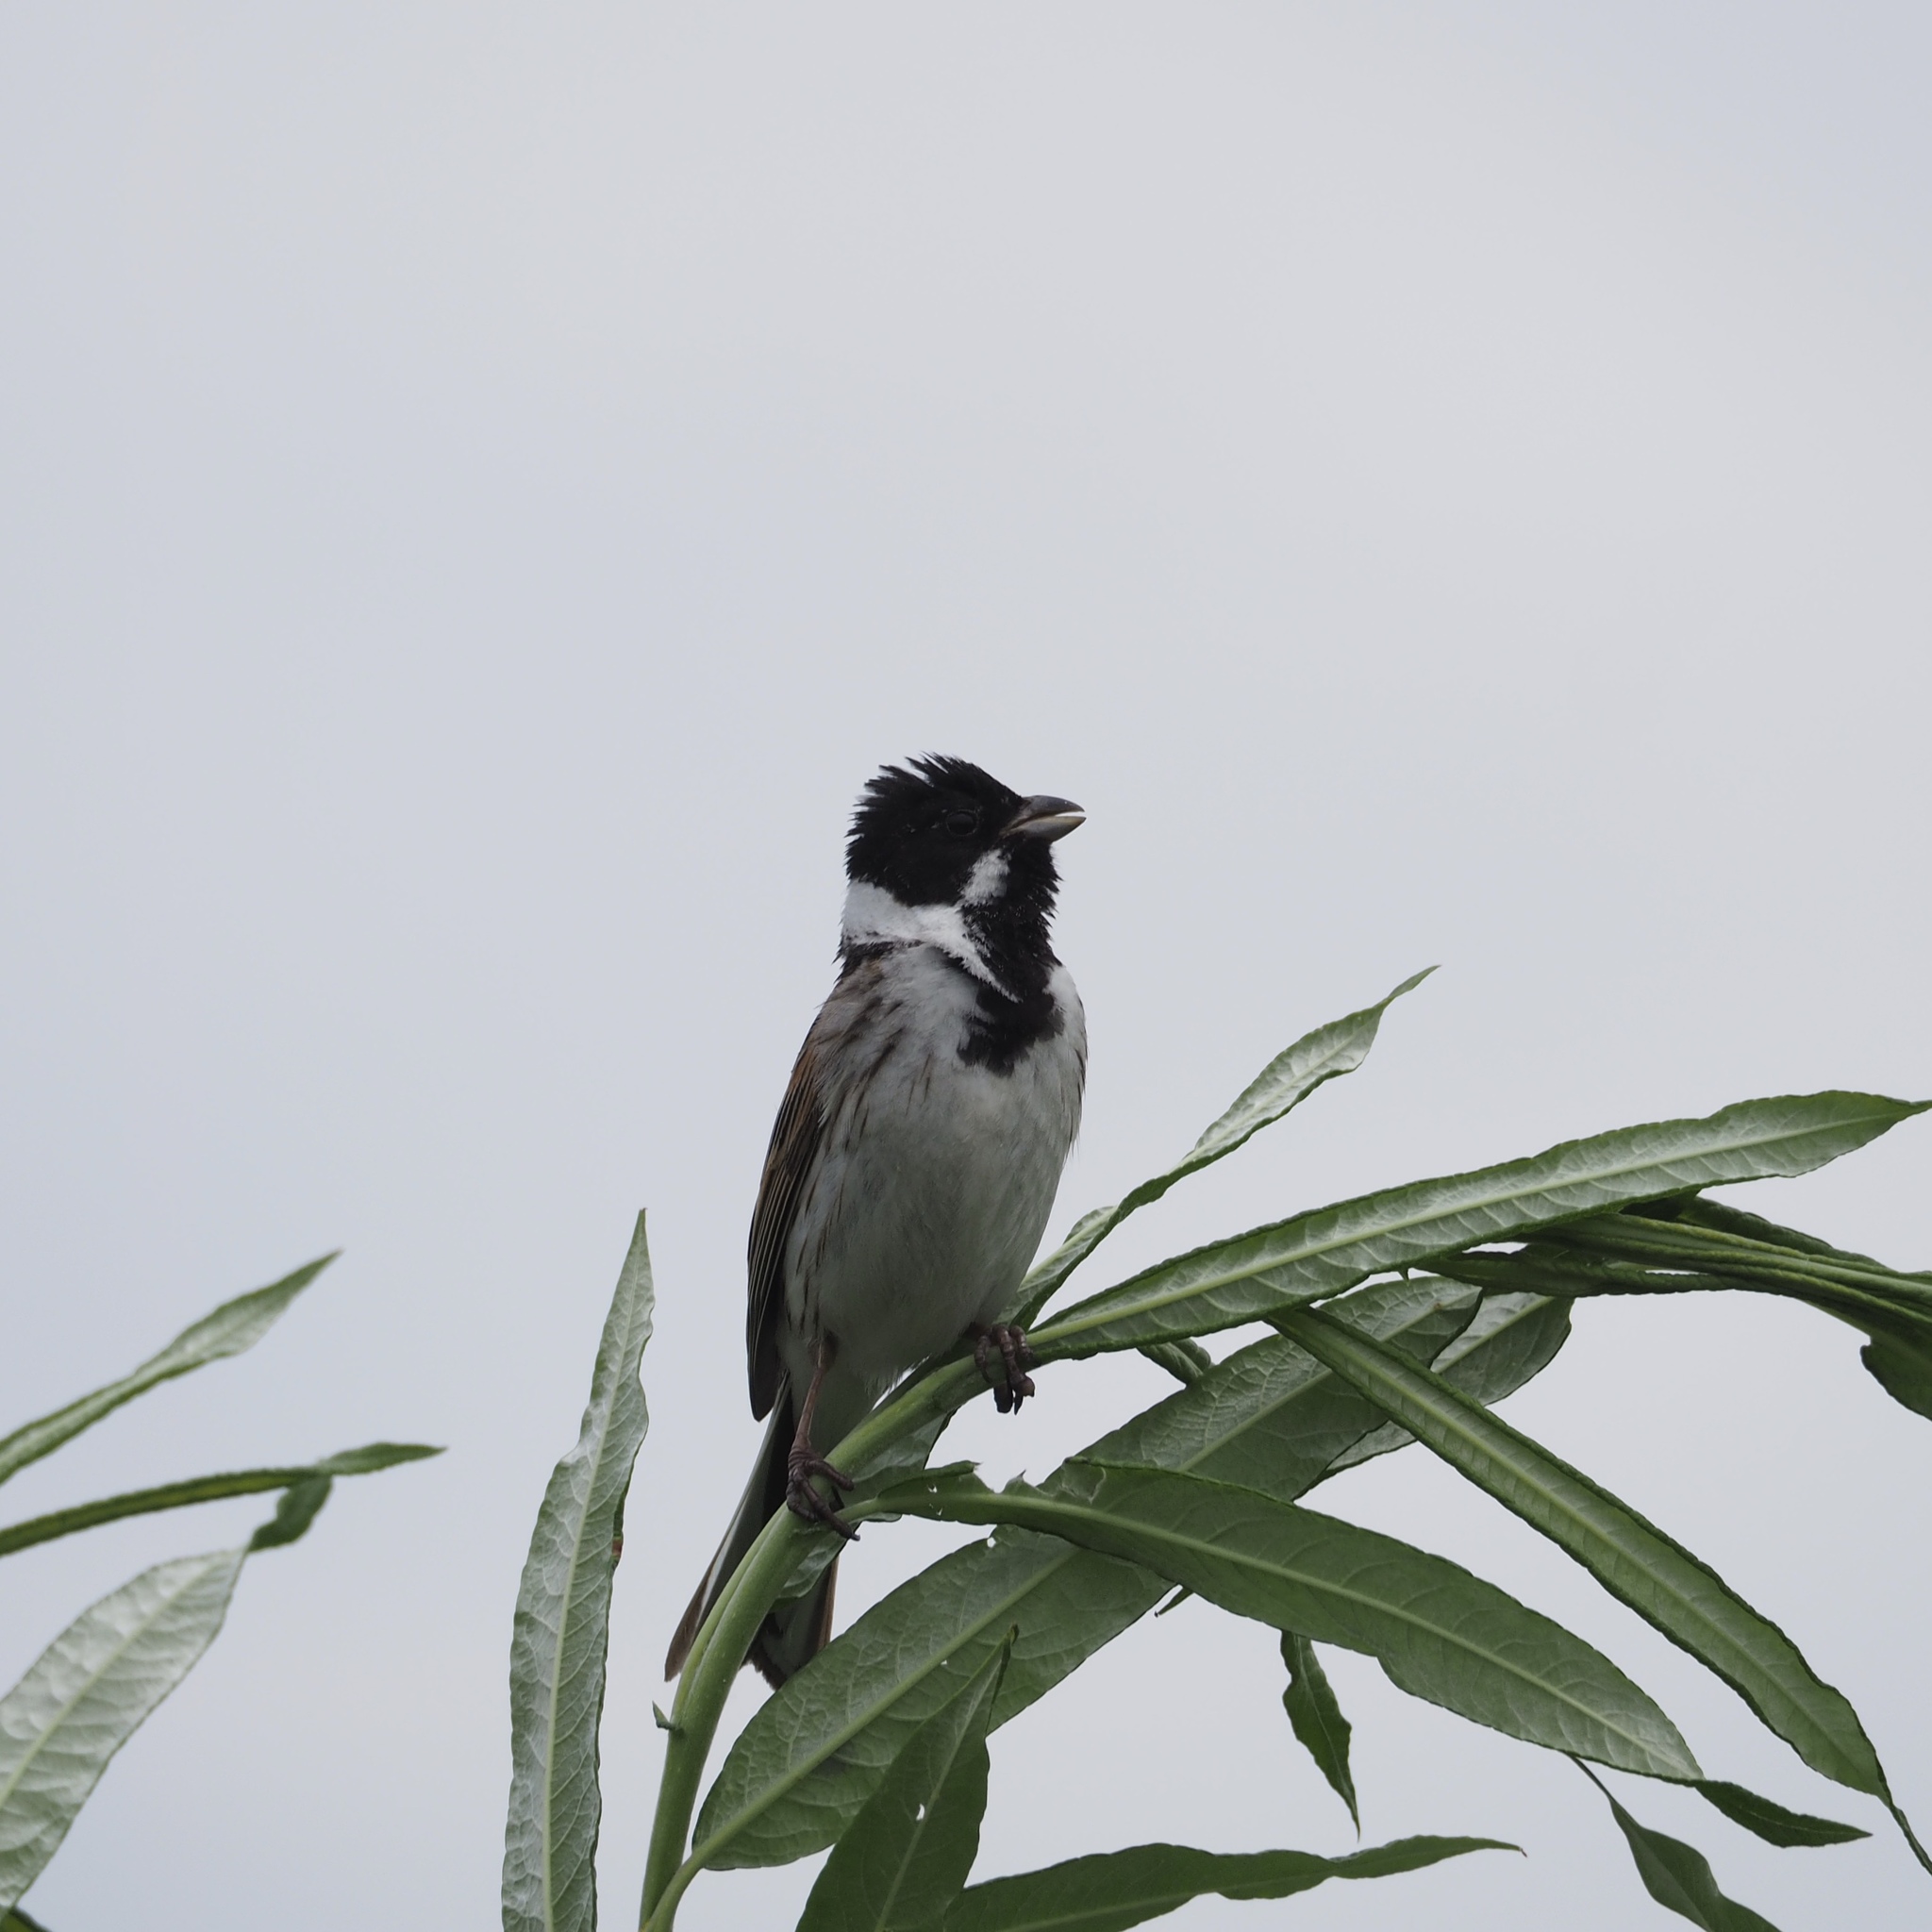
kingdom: Animalia
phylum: Chordata
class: Aves
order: Passeriformes
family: Emberizidae
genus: Emberiza
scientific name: Emberiza schoeniclus
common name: Reed bunting
